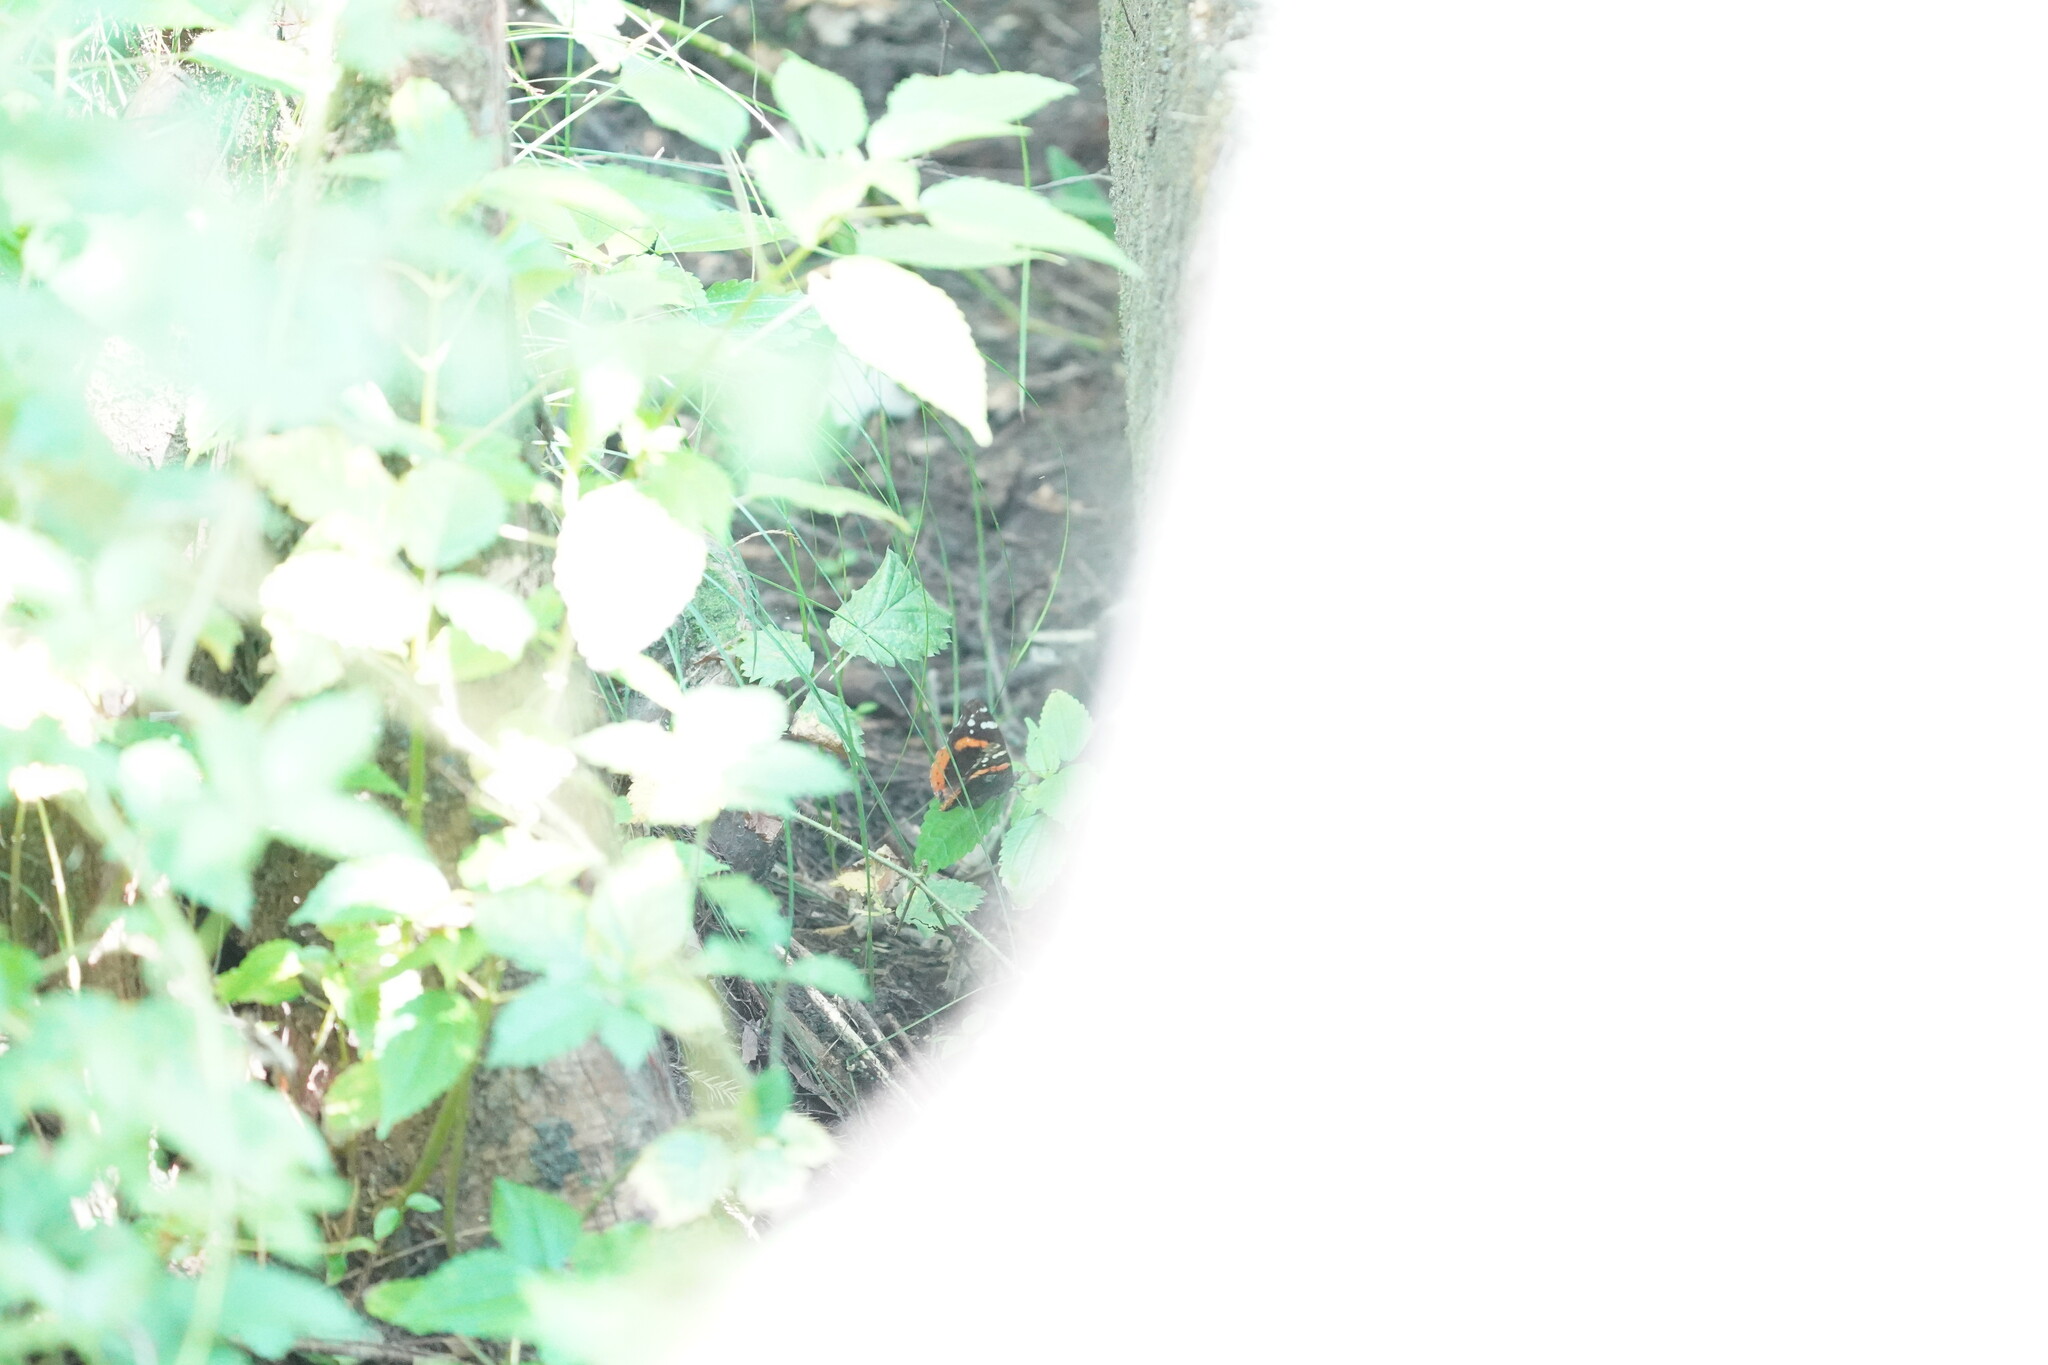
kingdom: Animalia
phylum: Arthropoda
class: Insecta
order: Lepidoptera
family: Nymphalidae
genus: Vanessa
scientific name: Vanessa atalanta
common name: Red admiral
